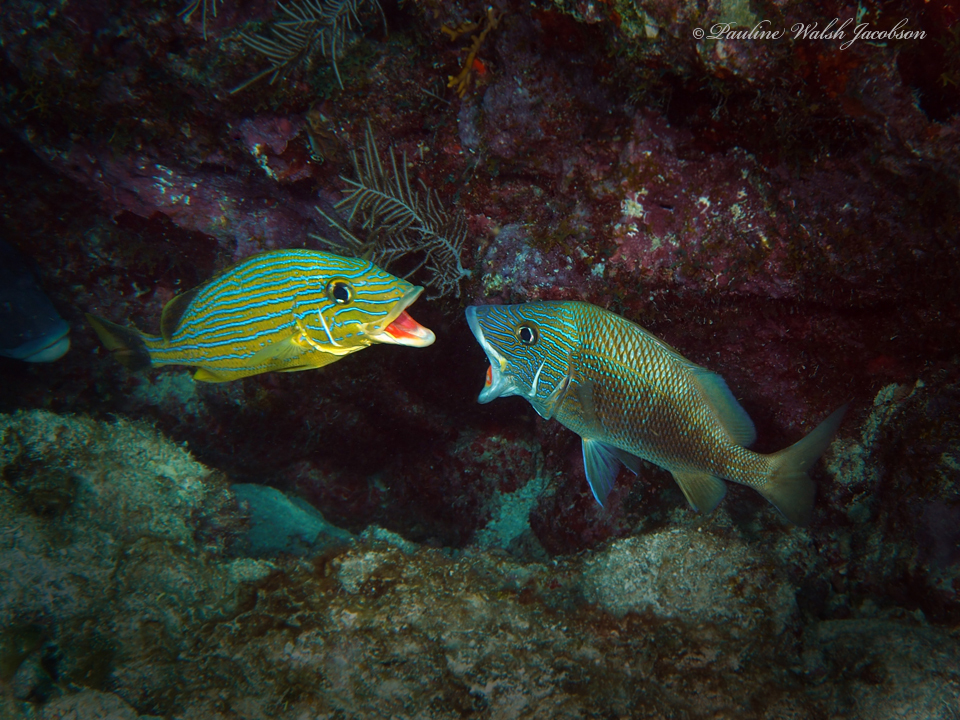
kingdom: Animalia
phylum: Chordata
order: Perciformes
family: Haemulidae
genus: Haemulon
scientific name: Haemulon plumierii
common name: White grunt
